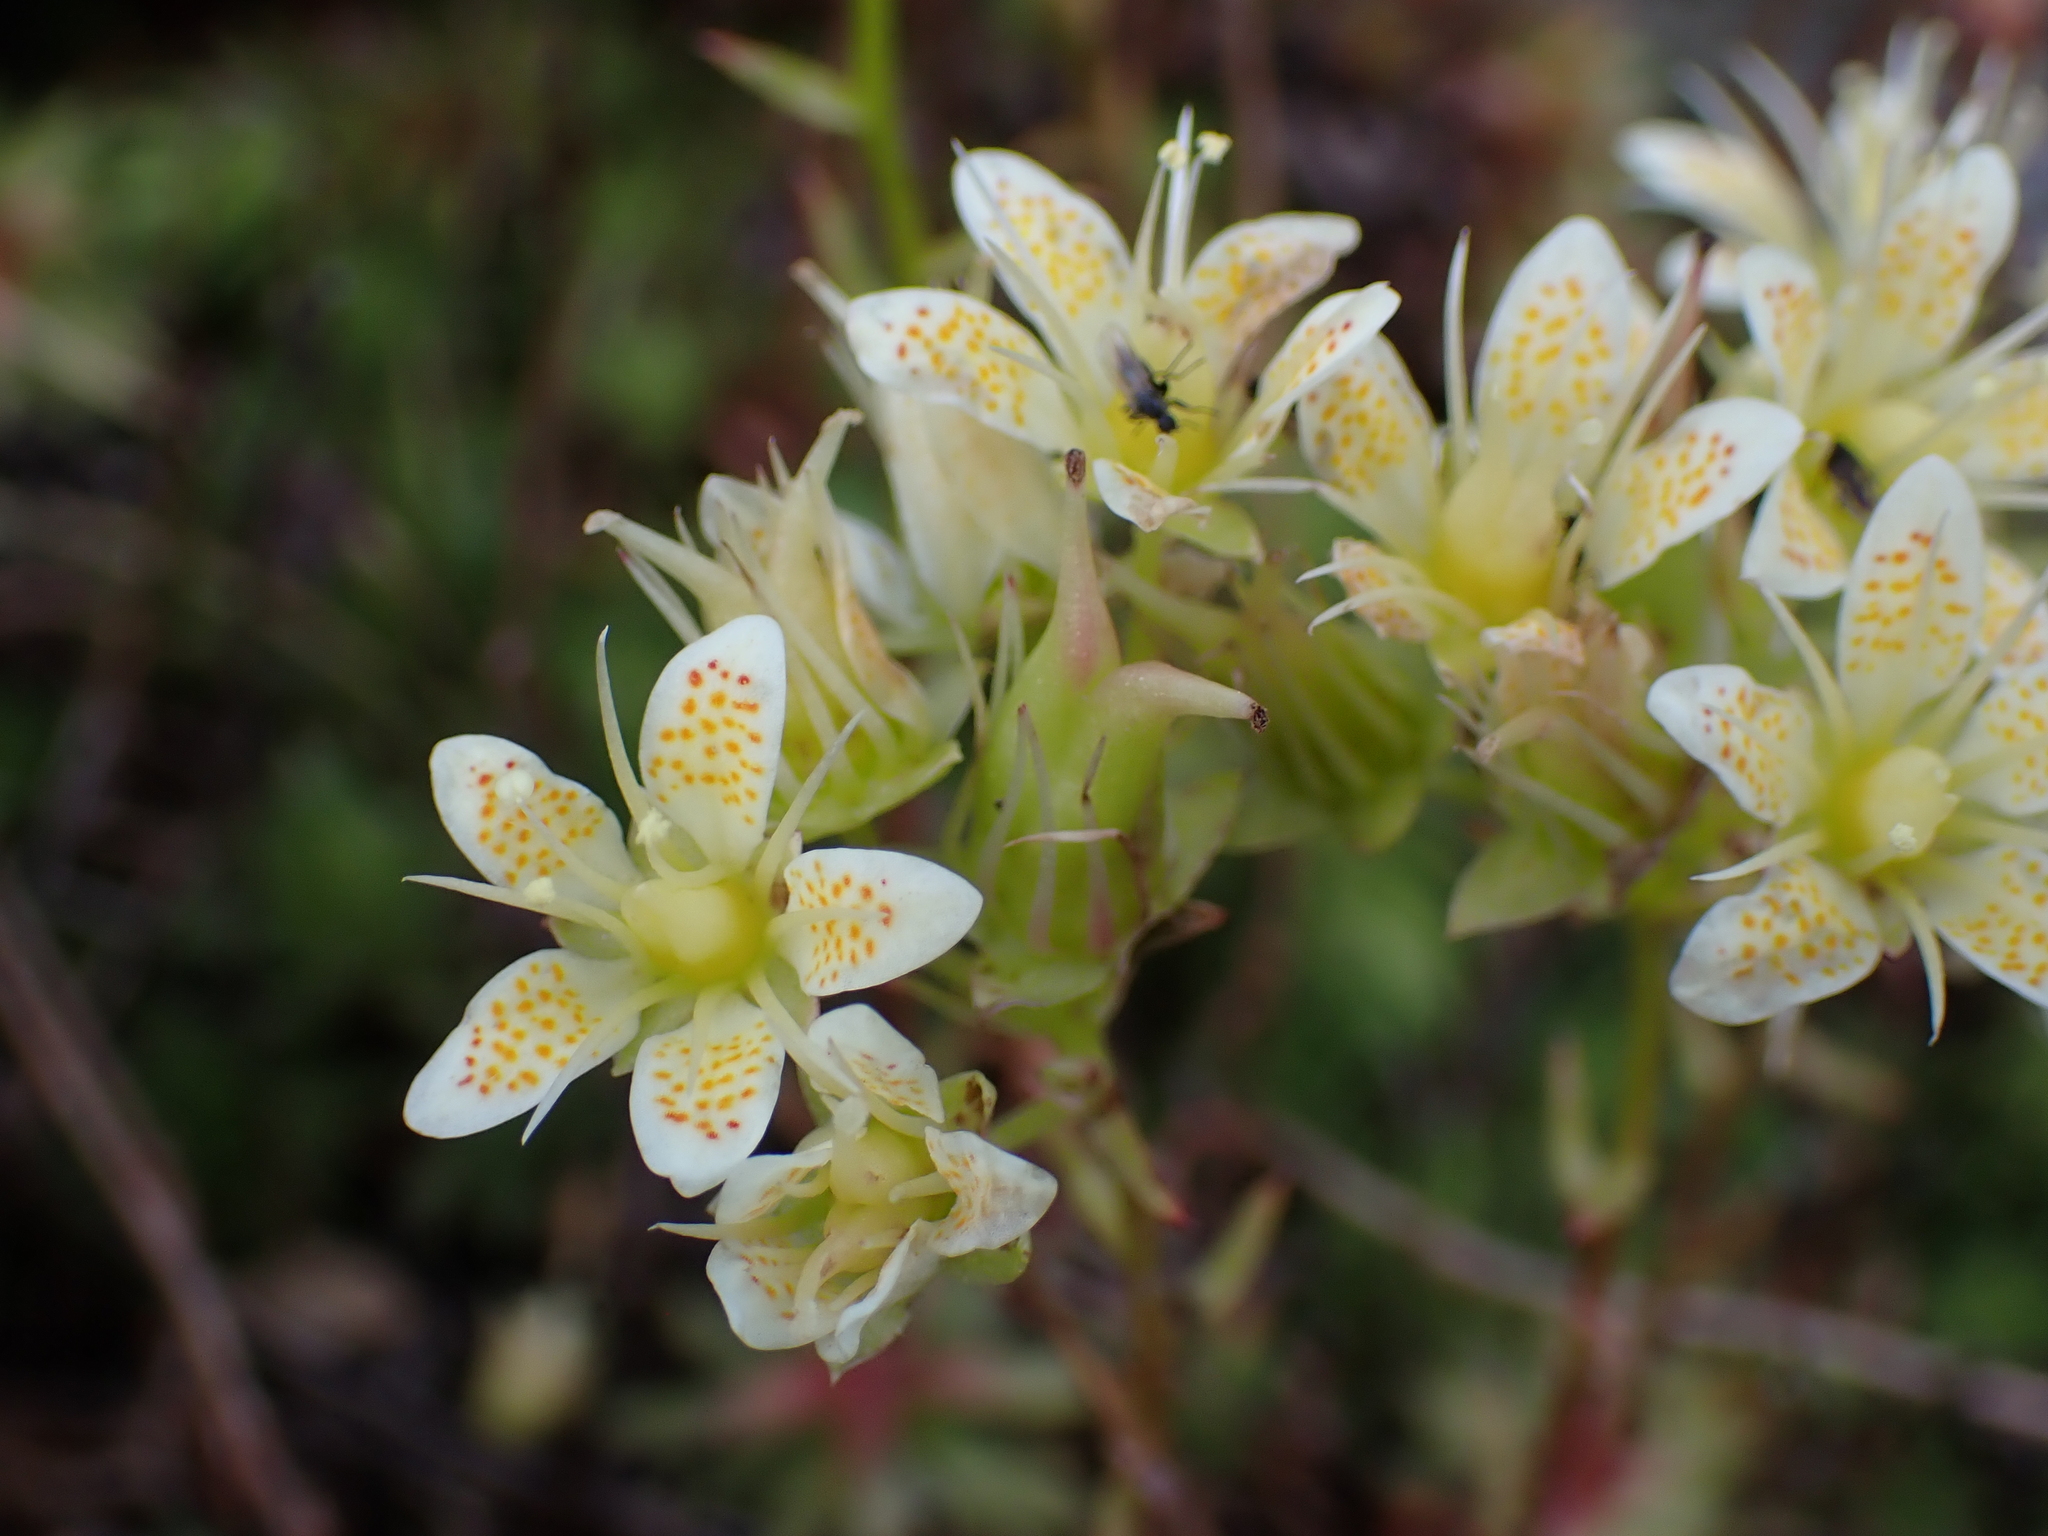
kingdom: Plantae
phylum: Tracheophyta
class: Magnoliopsida
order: Saxifragales
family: Saxifragaceae
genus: Saxifraga
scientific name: Saxifraga bronchialis
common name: Matted saxifrage
